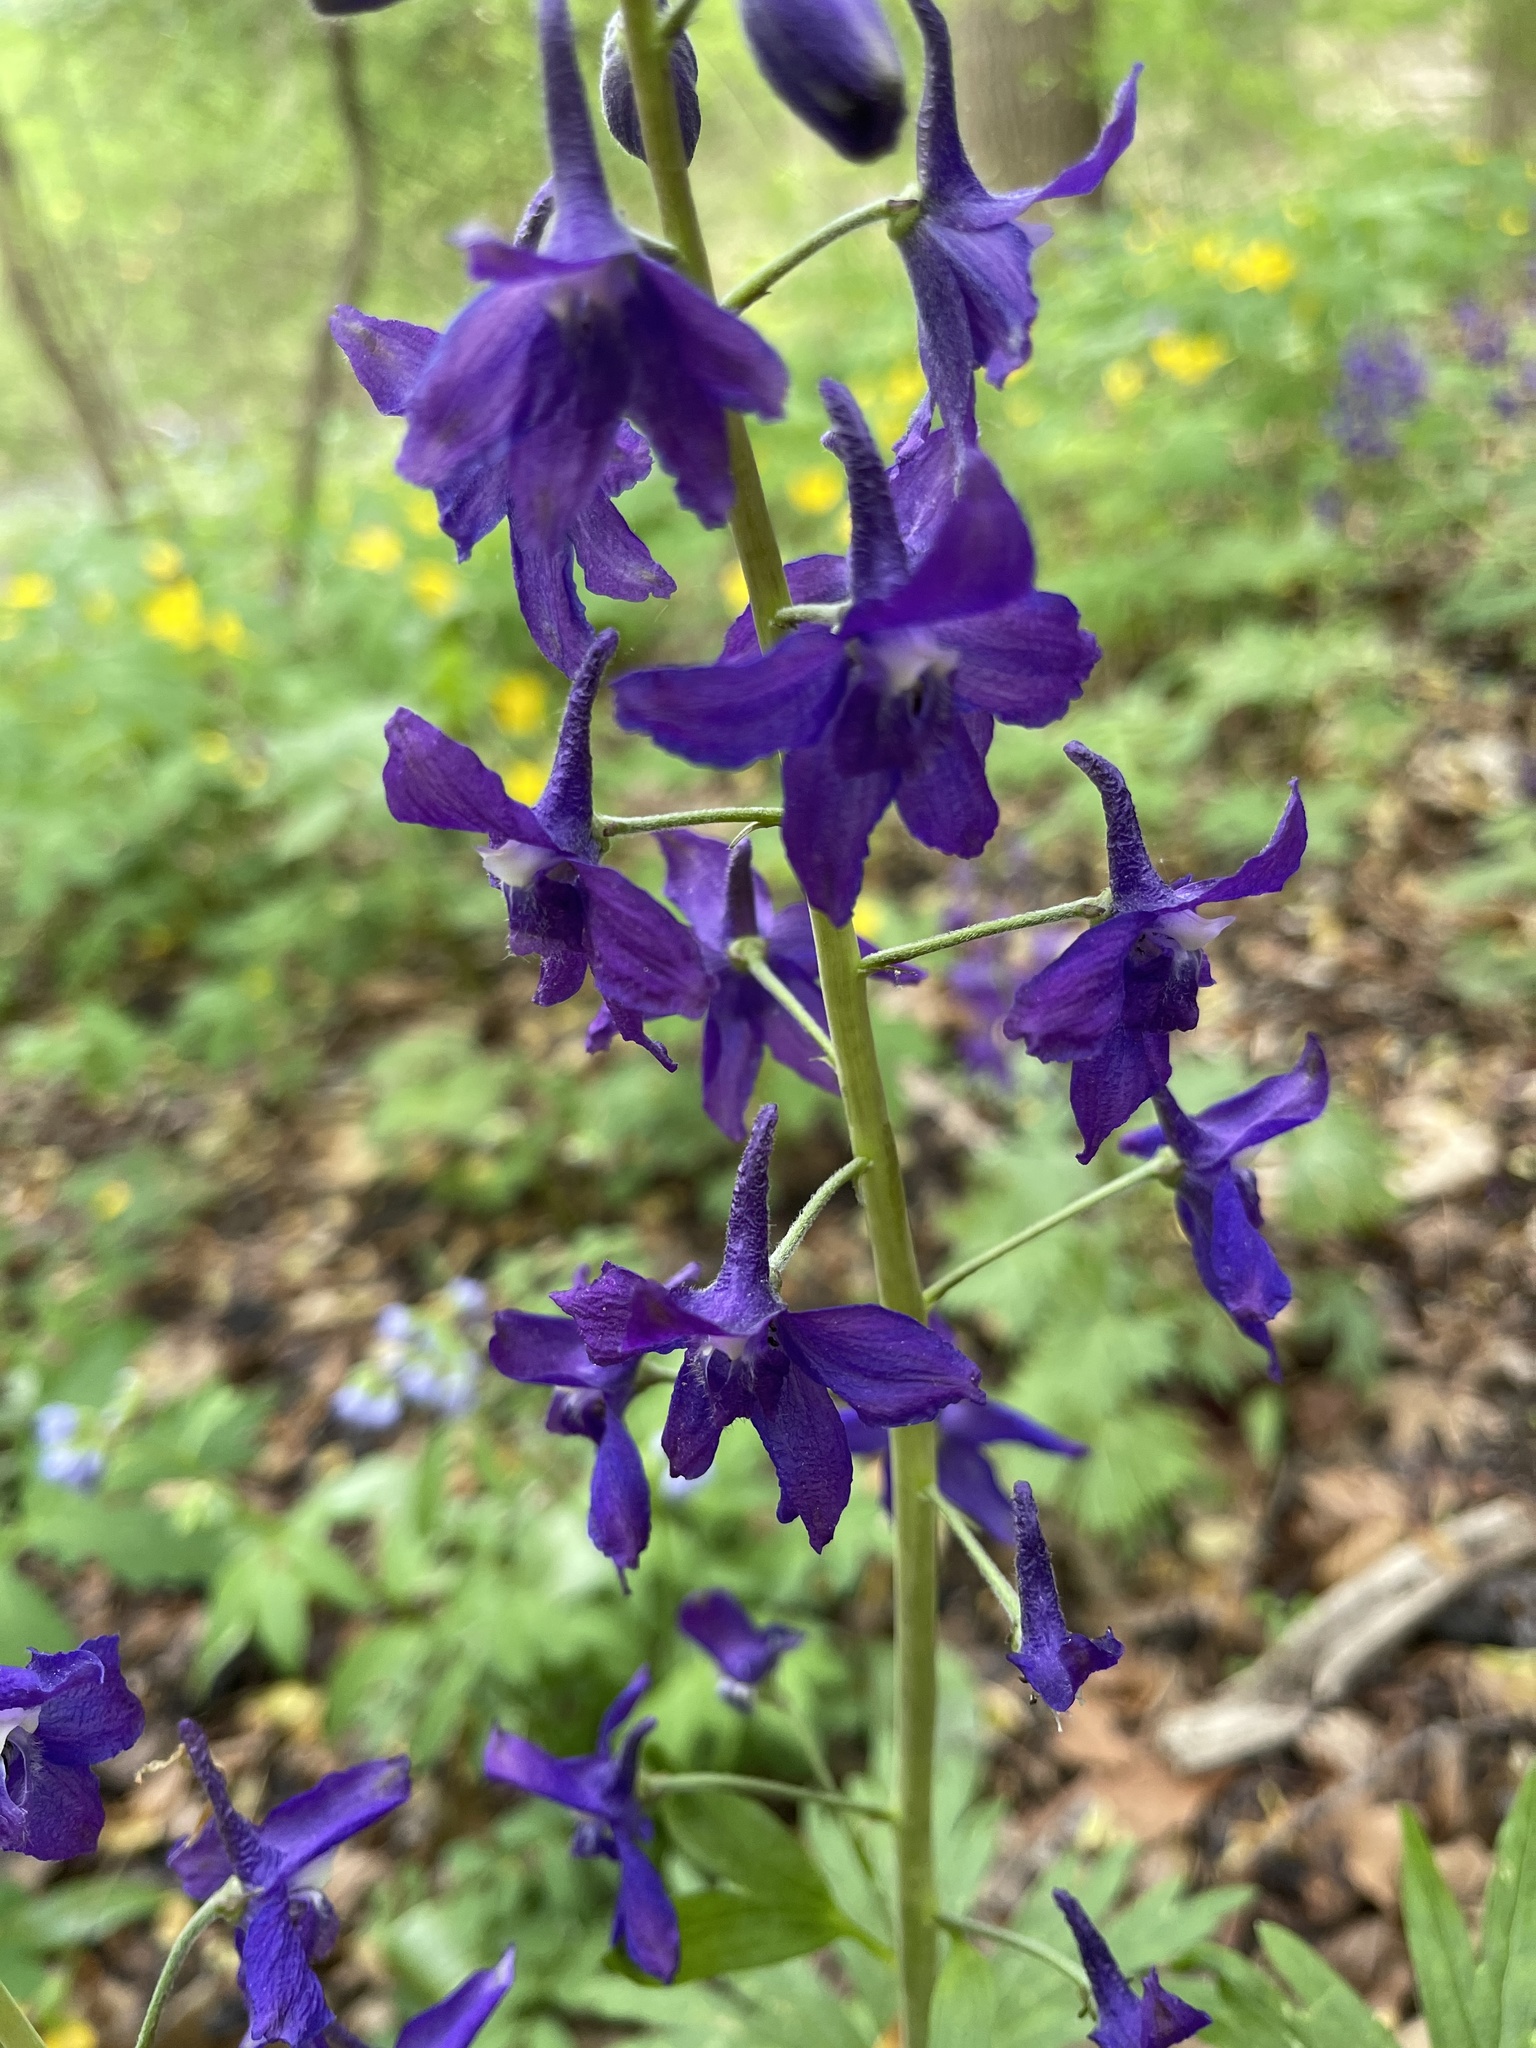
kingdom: Plantae
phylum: Tracheophyta
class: Magnoliopsida
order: Ranunculales
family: Ranunculaceae
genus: Delphinium
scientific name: Delphinium tricorne
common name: Dwarf larkspur
